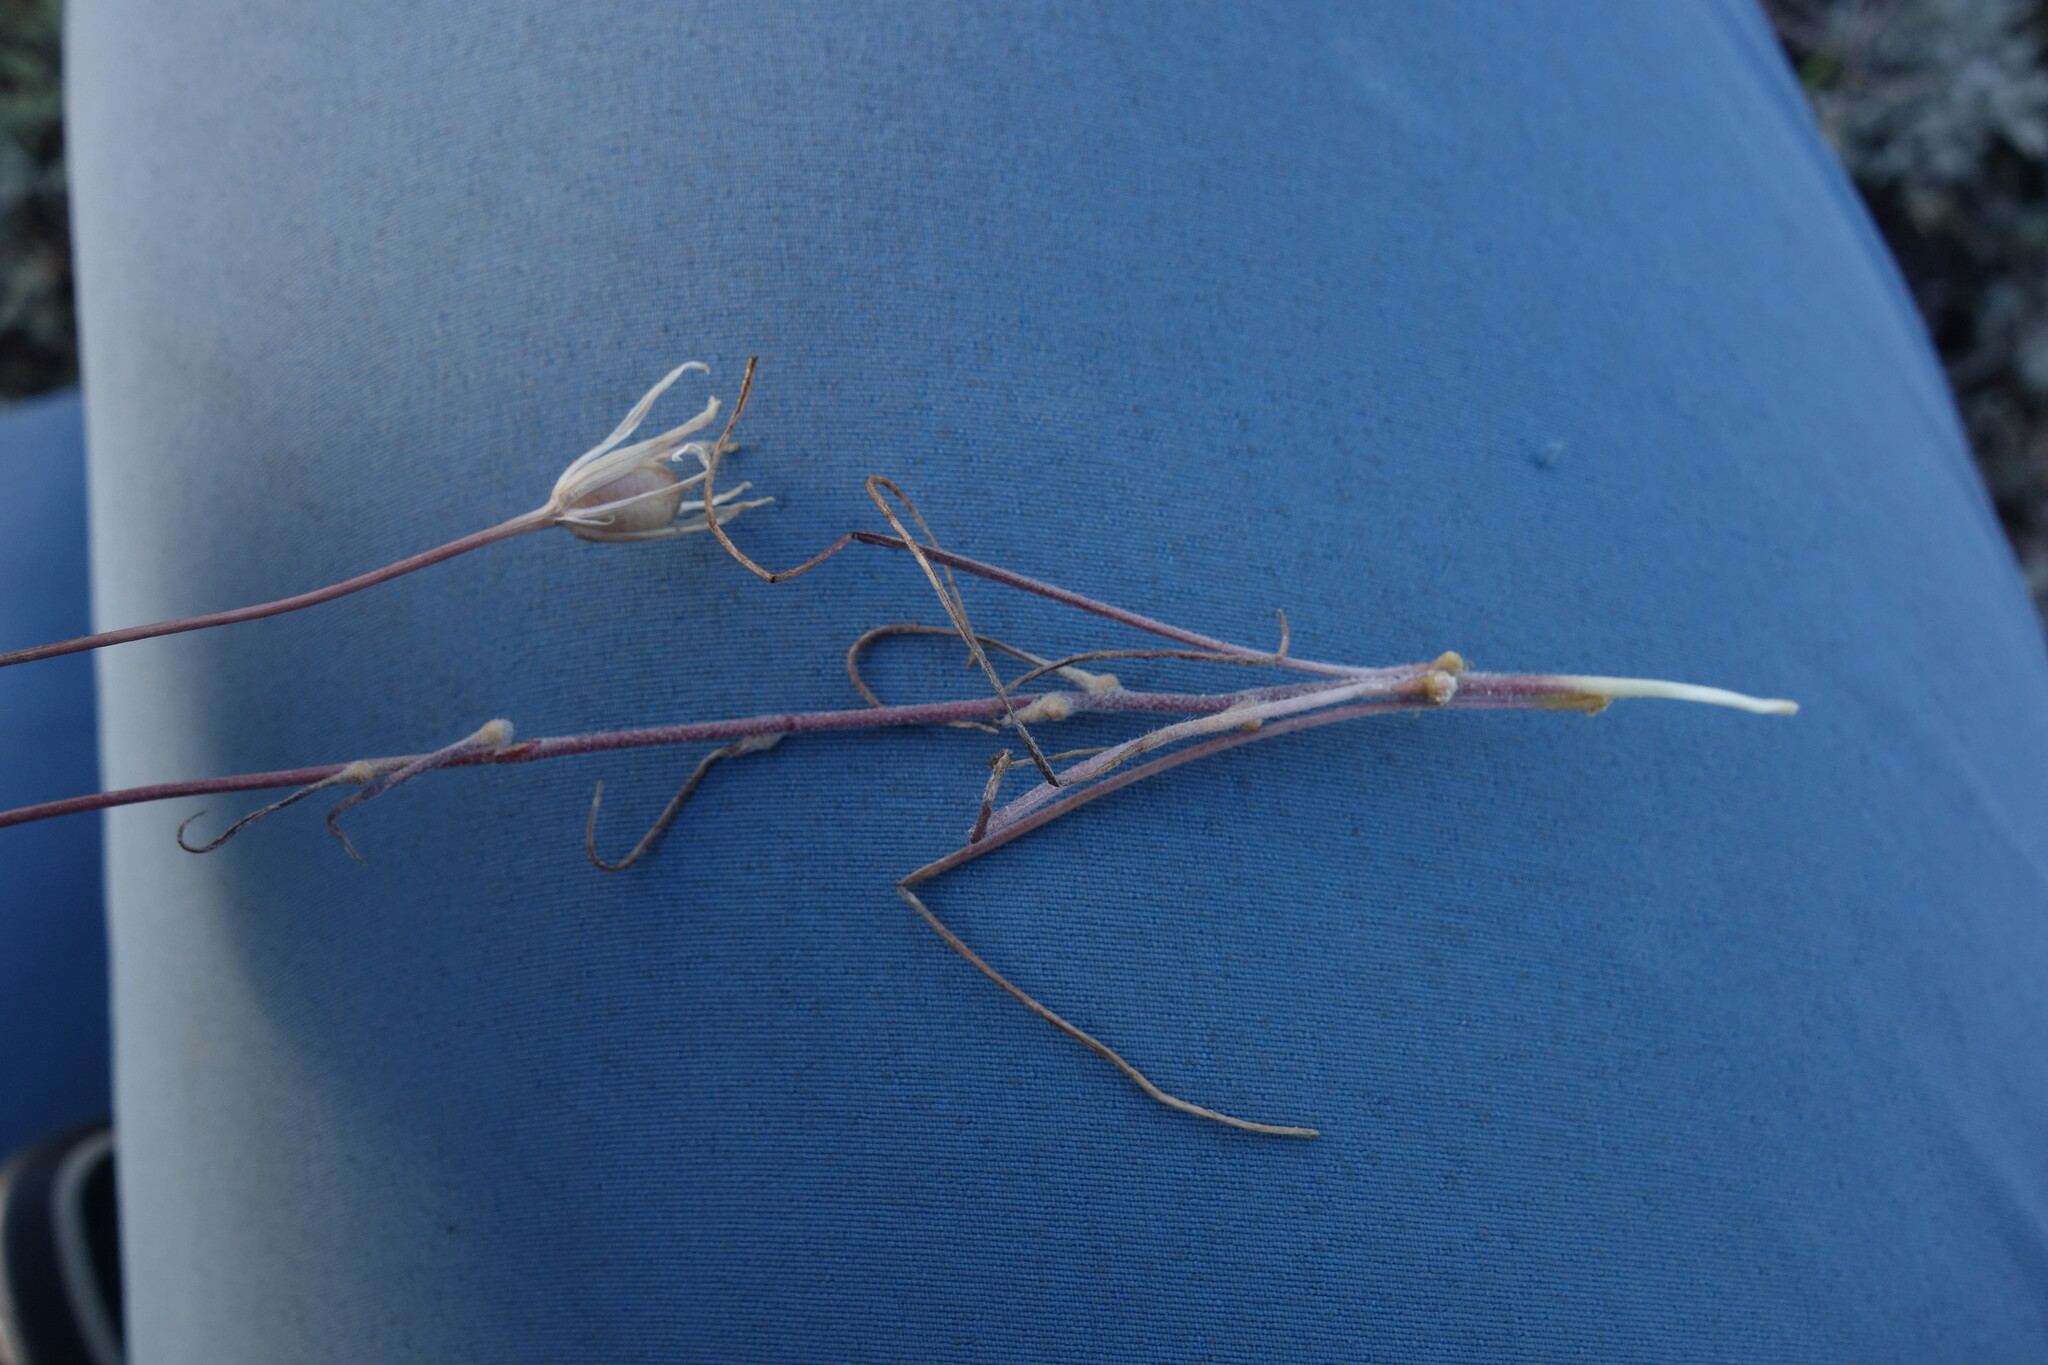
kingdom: Plantae
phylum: Tracheophyta
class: Liliopsida
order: Liliales
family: Liliaceae
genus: Gagea
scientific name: Gagea bulbifera
